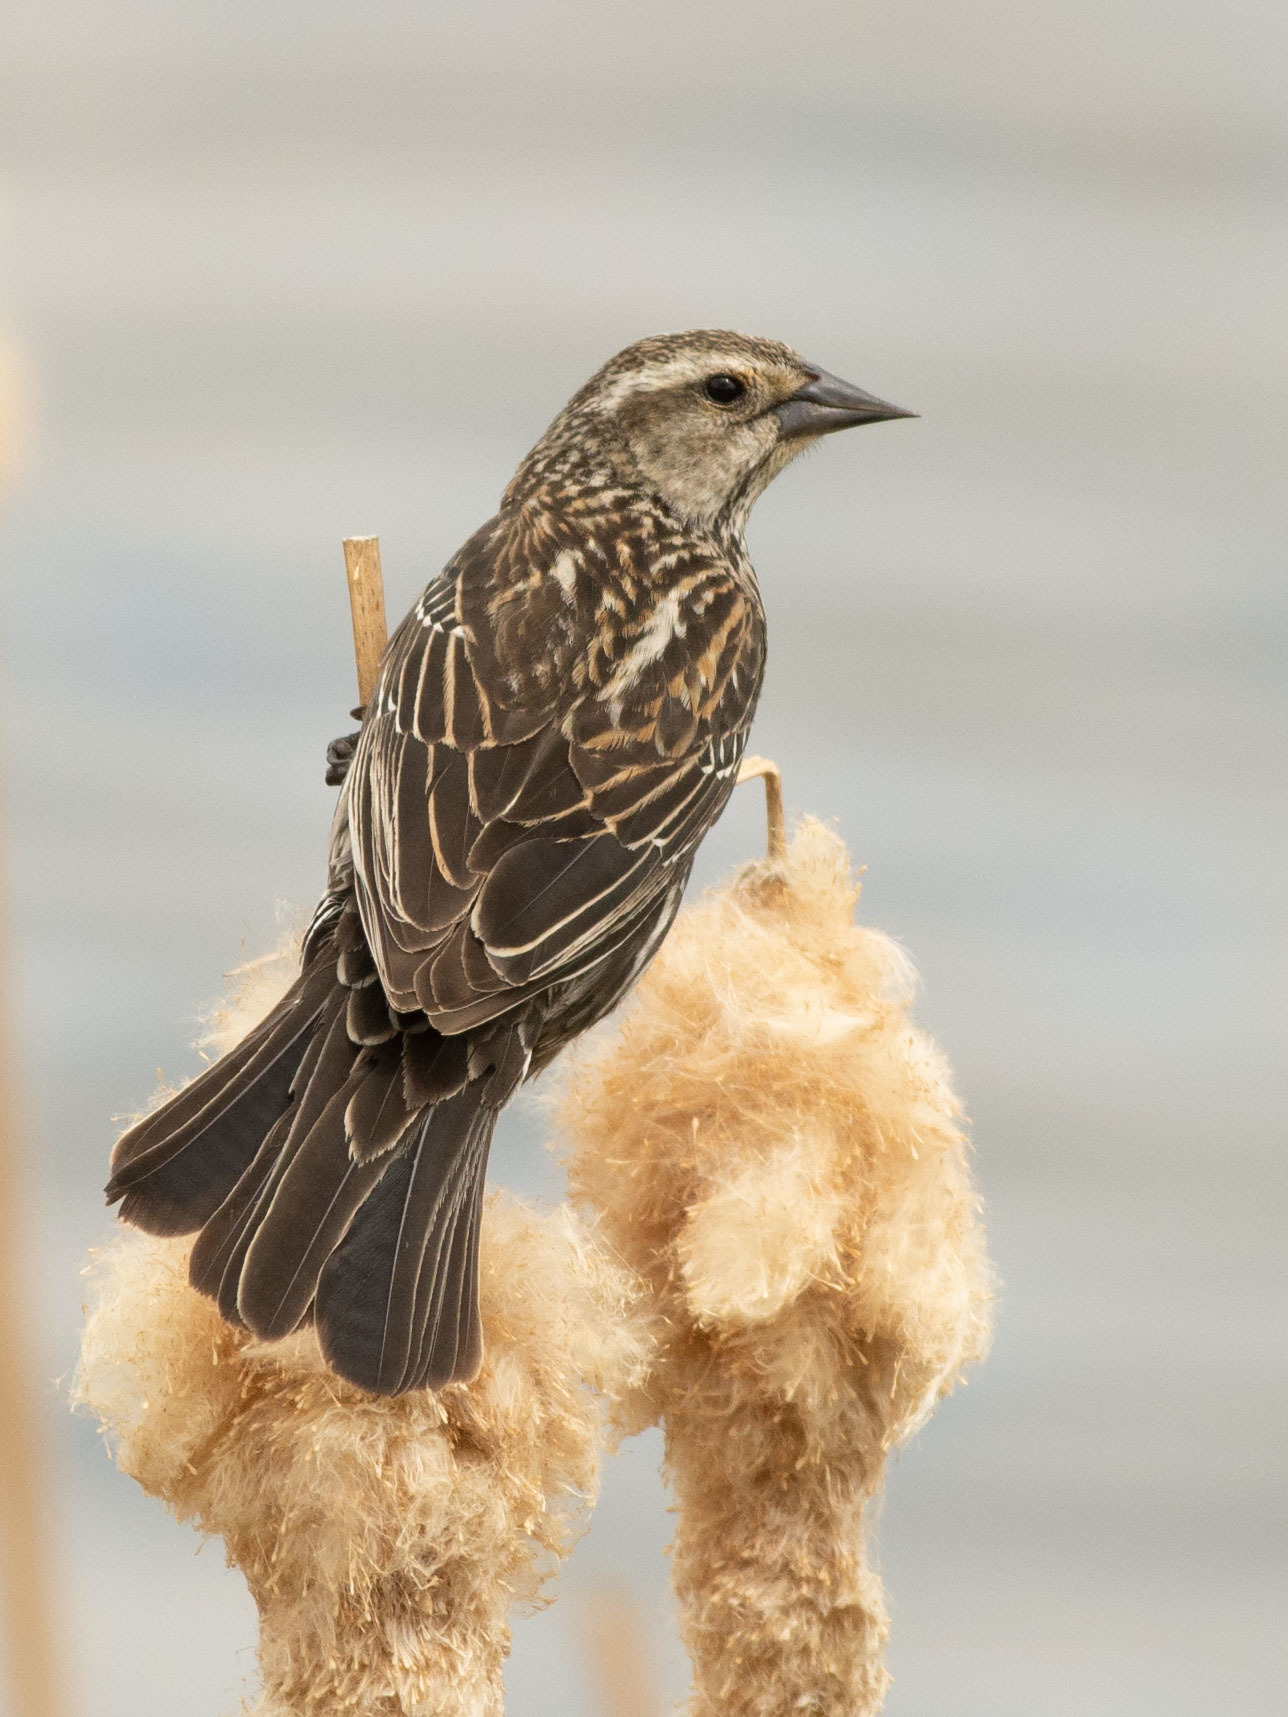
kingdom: Animalia
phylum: Chordata
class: Aves
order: Passeriformes
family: Icteridae
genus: Agelaius
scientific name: Agelaius phoeniceus
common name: Red-winged blackbird
